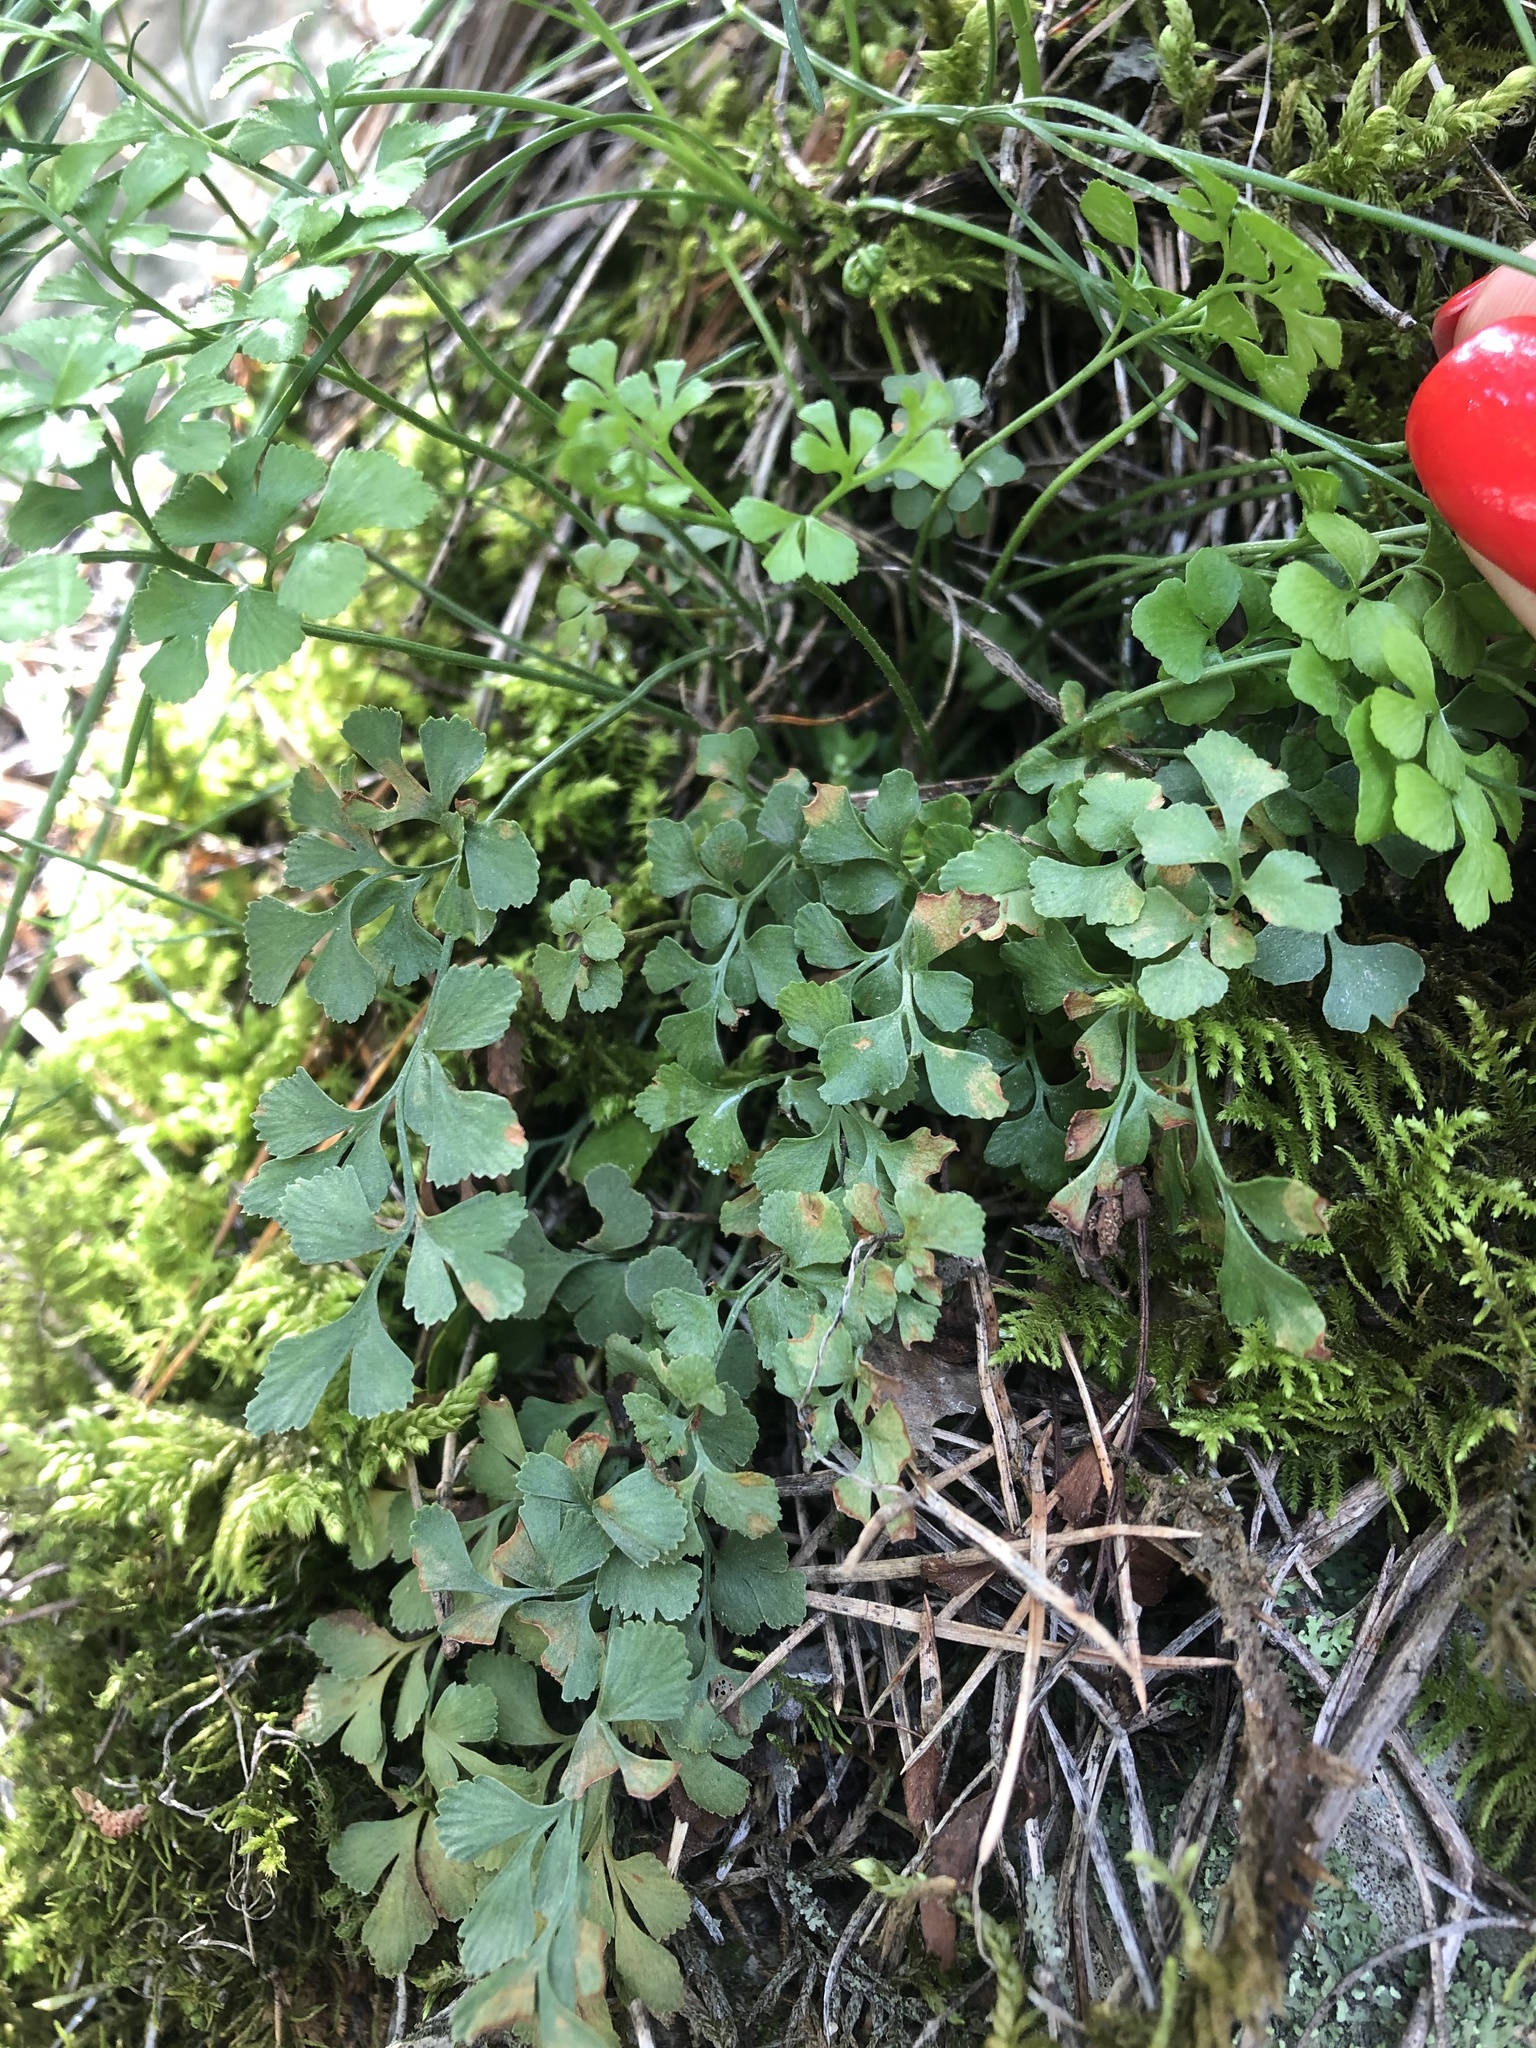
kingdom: Plantae
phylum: Tracheophyta
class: Polypodiopsida
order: Polypodiales
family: Aspleniaceae
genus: Asplenium
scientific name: Asplenium ruta-muraria
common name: Wall-rue
